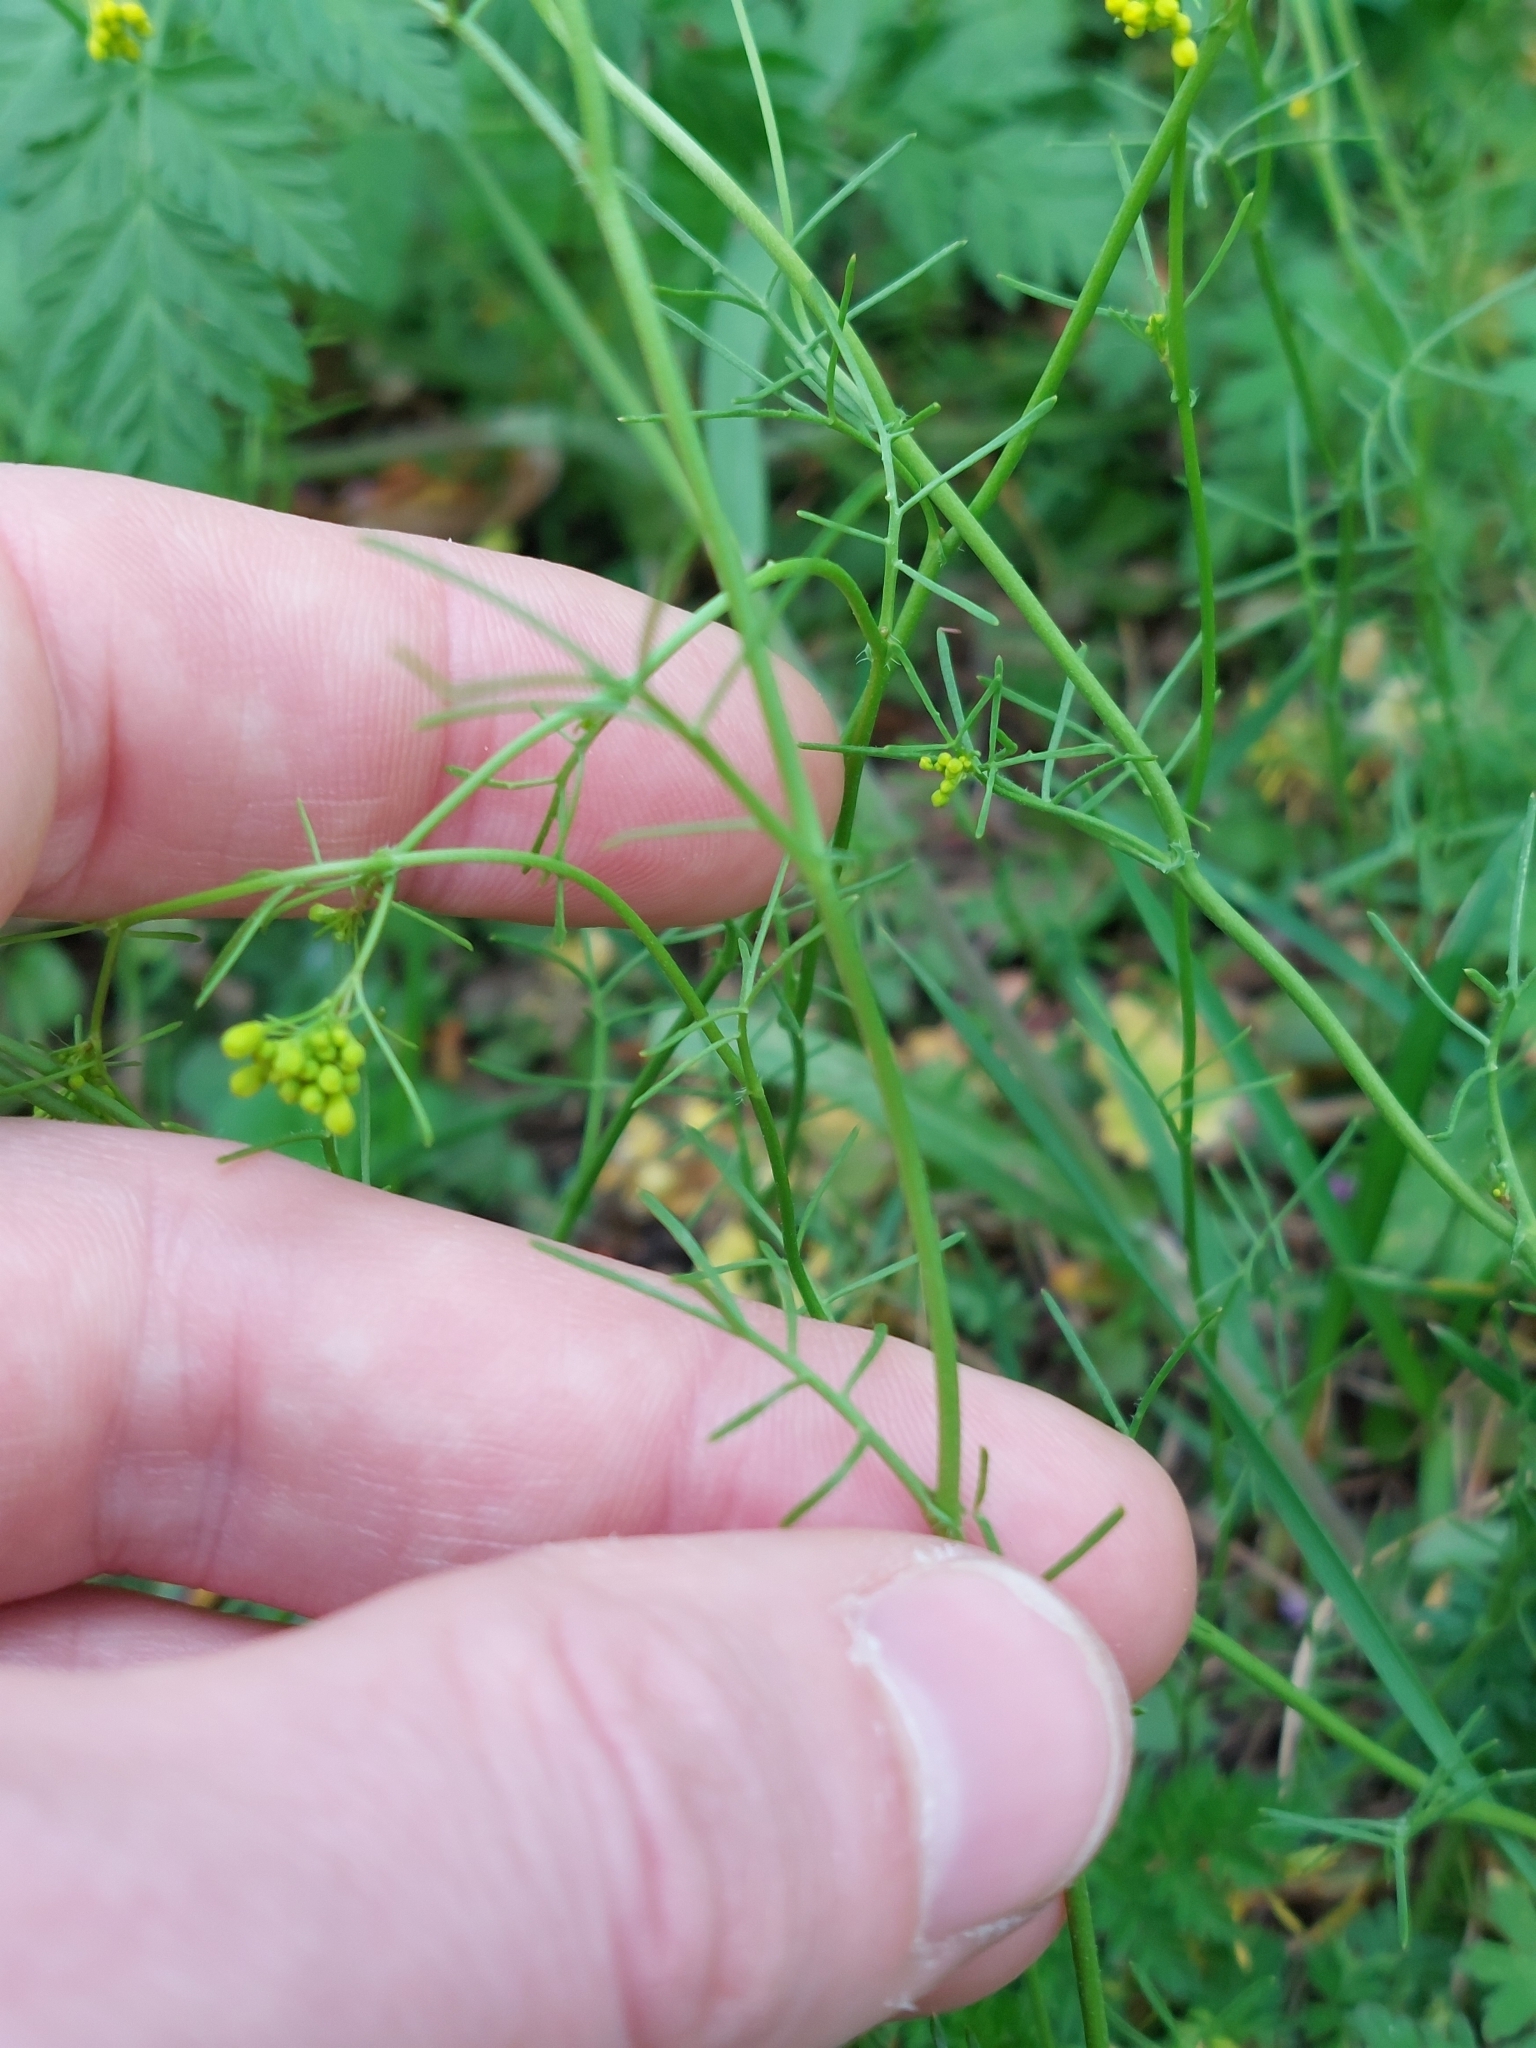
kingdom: Plantae
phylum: Tracheophyta
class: Magnoliopsida
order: Brassicales
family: Brassicaceae
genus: Rorippa
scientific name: Rorippa pyrenaica
